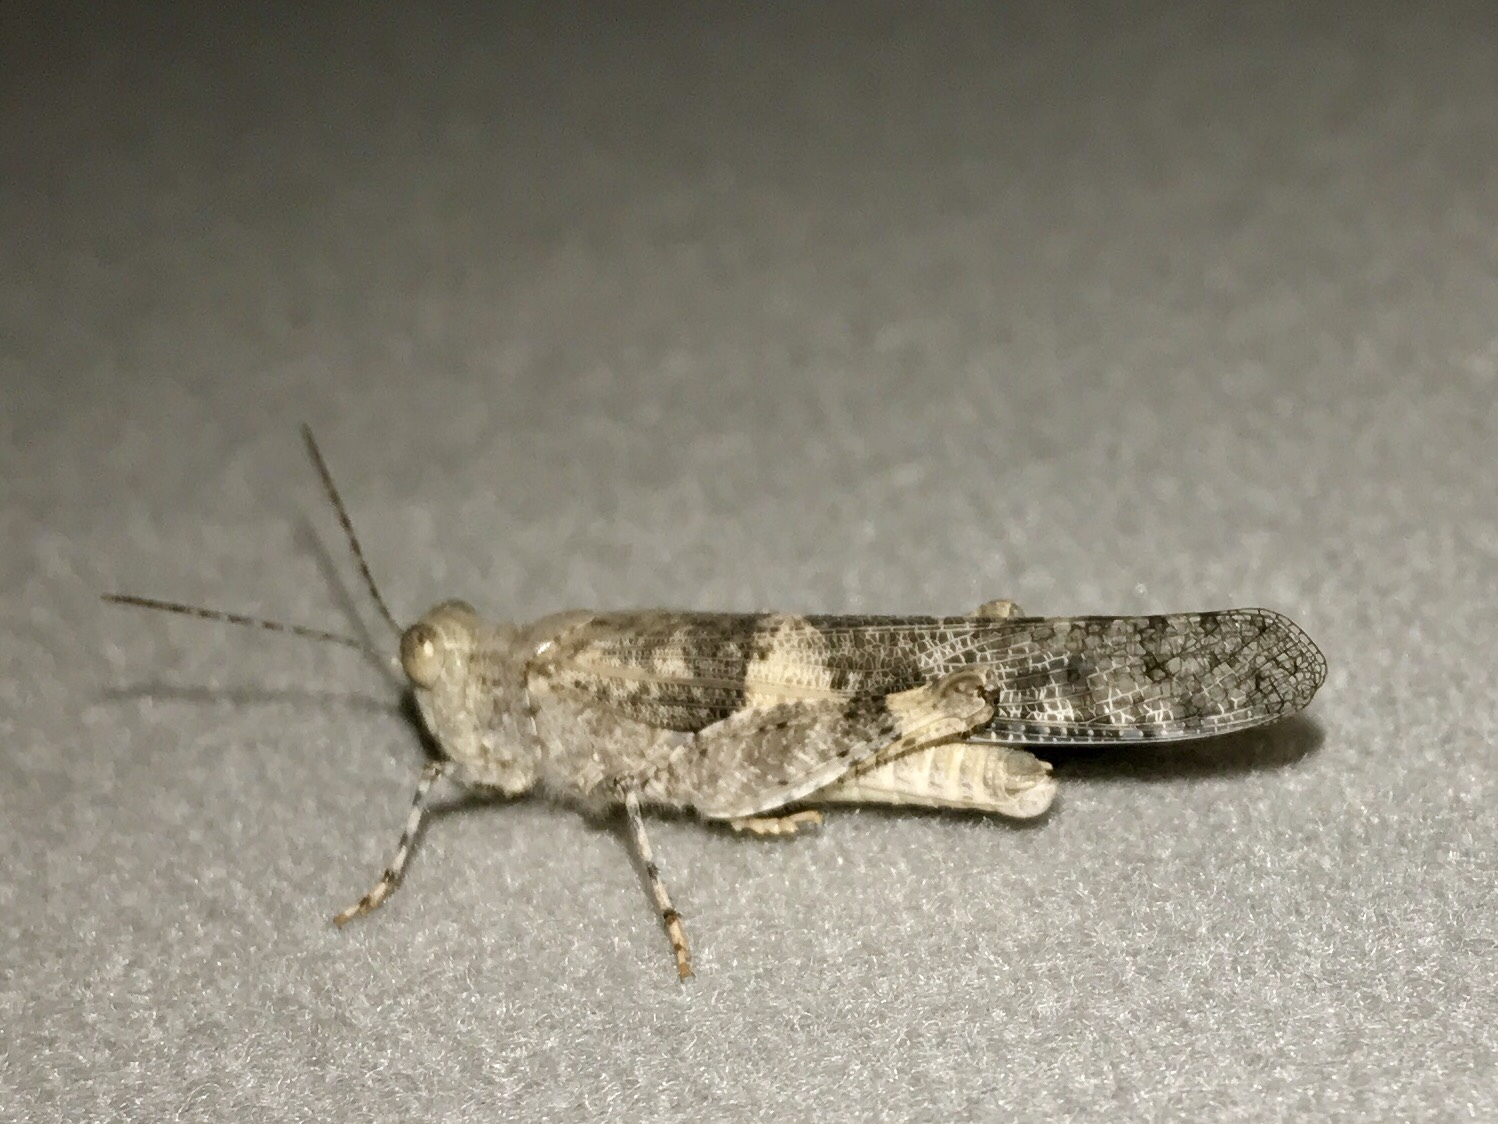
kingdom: Animalia
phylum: Arthropoda
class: Insecta
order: Orthoptera
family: Acrididae
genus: Trimerotropis
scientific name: Trimerotropis pallidipennis
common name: Pallid-winged grasshopper
